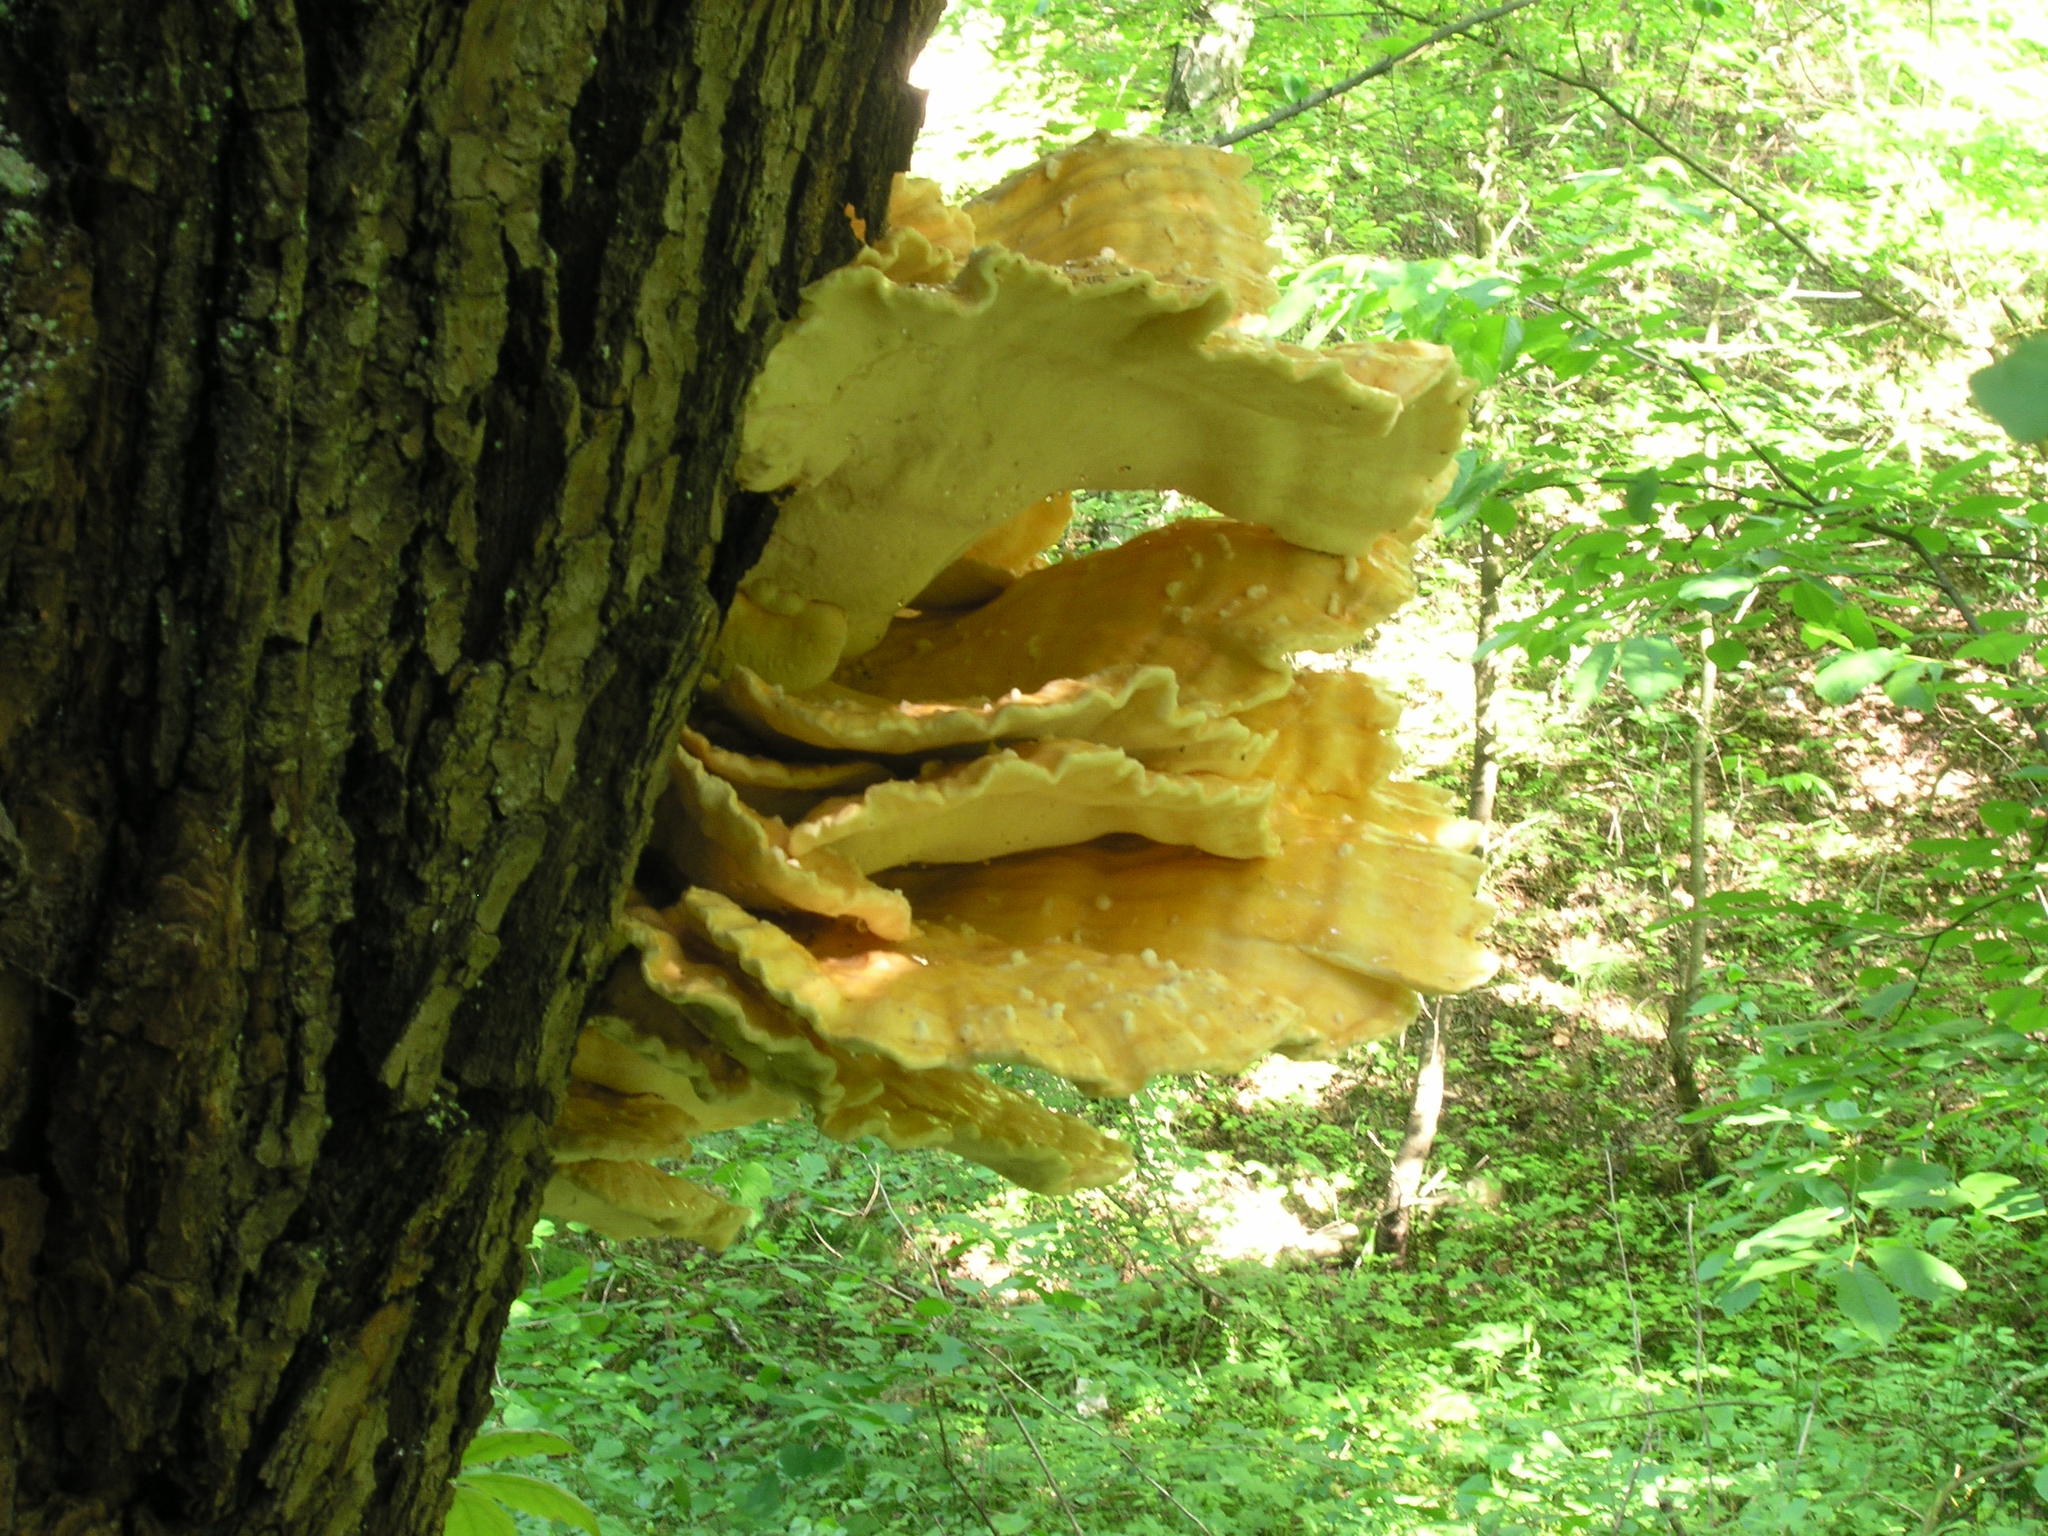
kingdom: Fungi
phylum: Basidiomycota
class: Agaricomycetes
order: Polyporales
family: Laetiporaceae
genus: Laetiporus
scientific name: Laetiporus sulphureus
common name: Chicken of the woods
